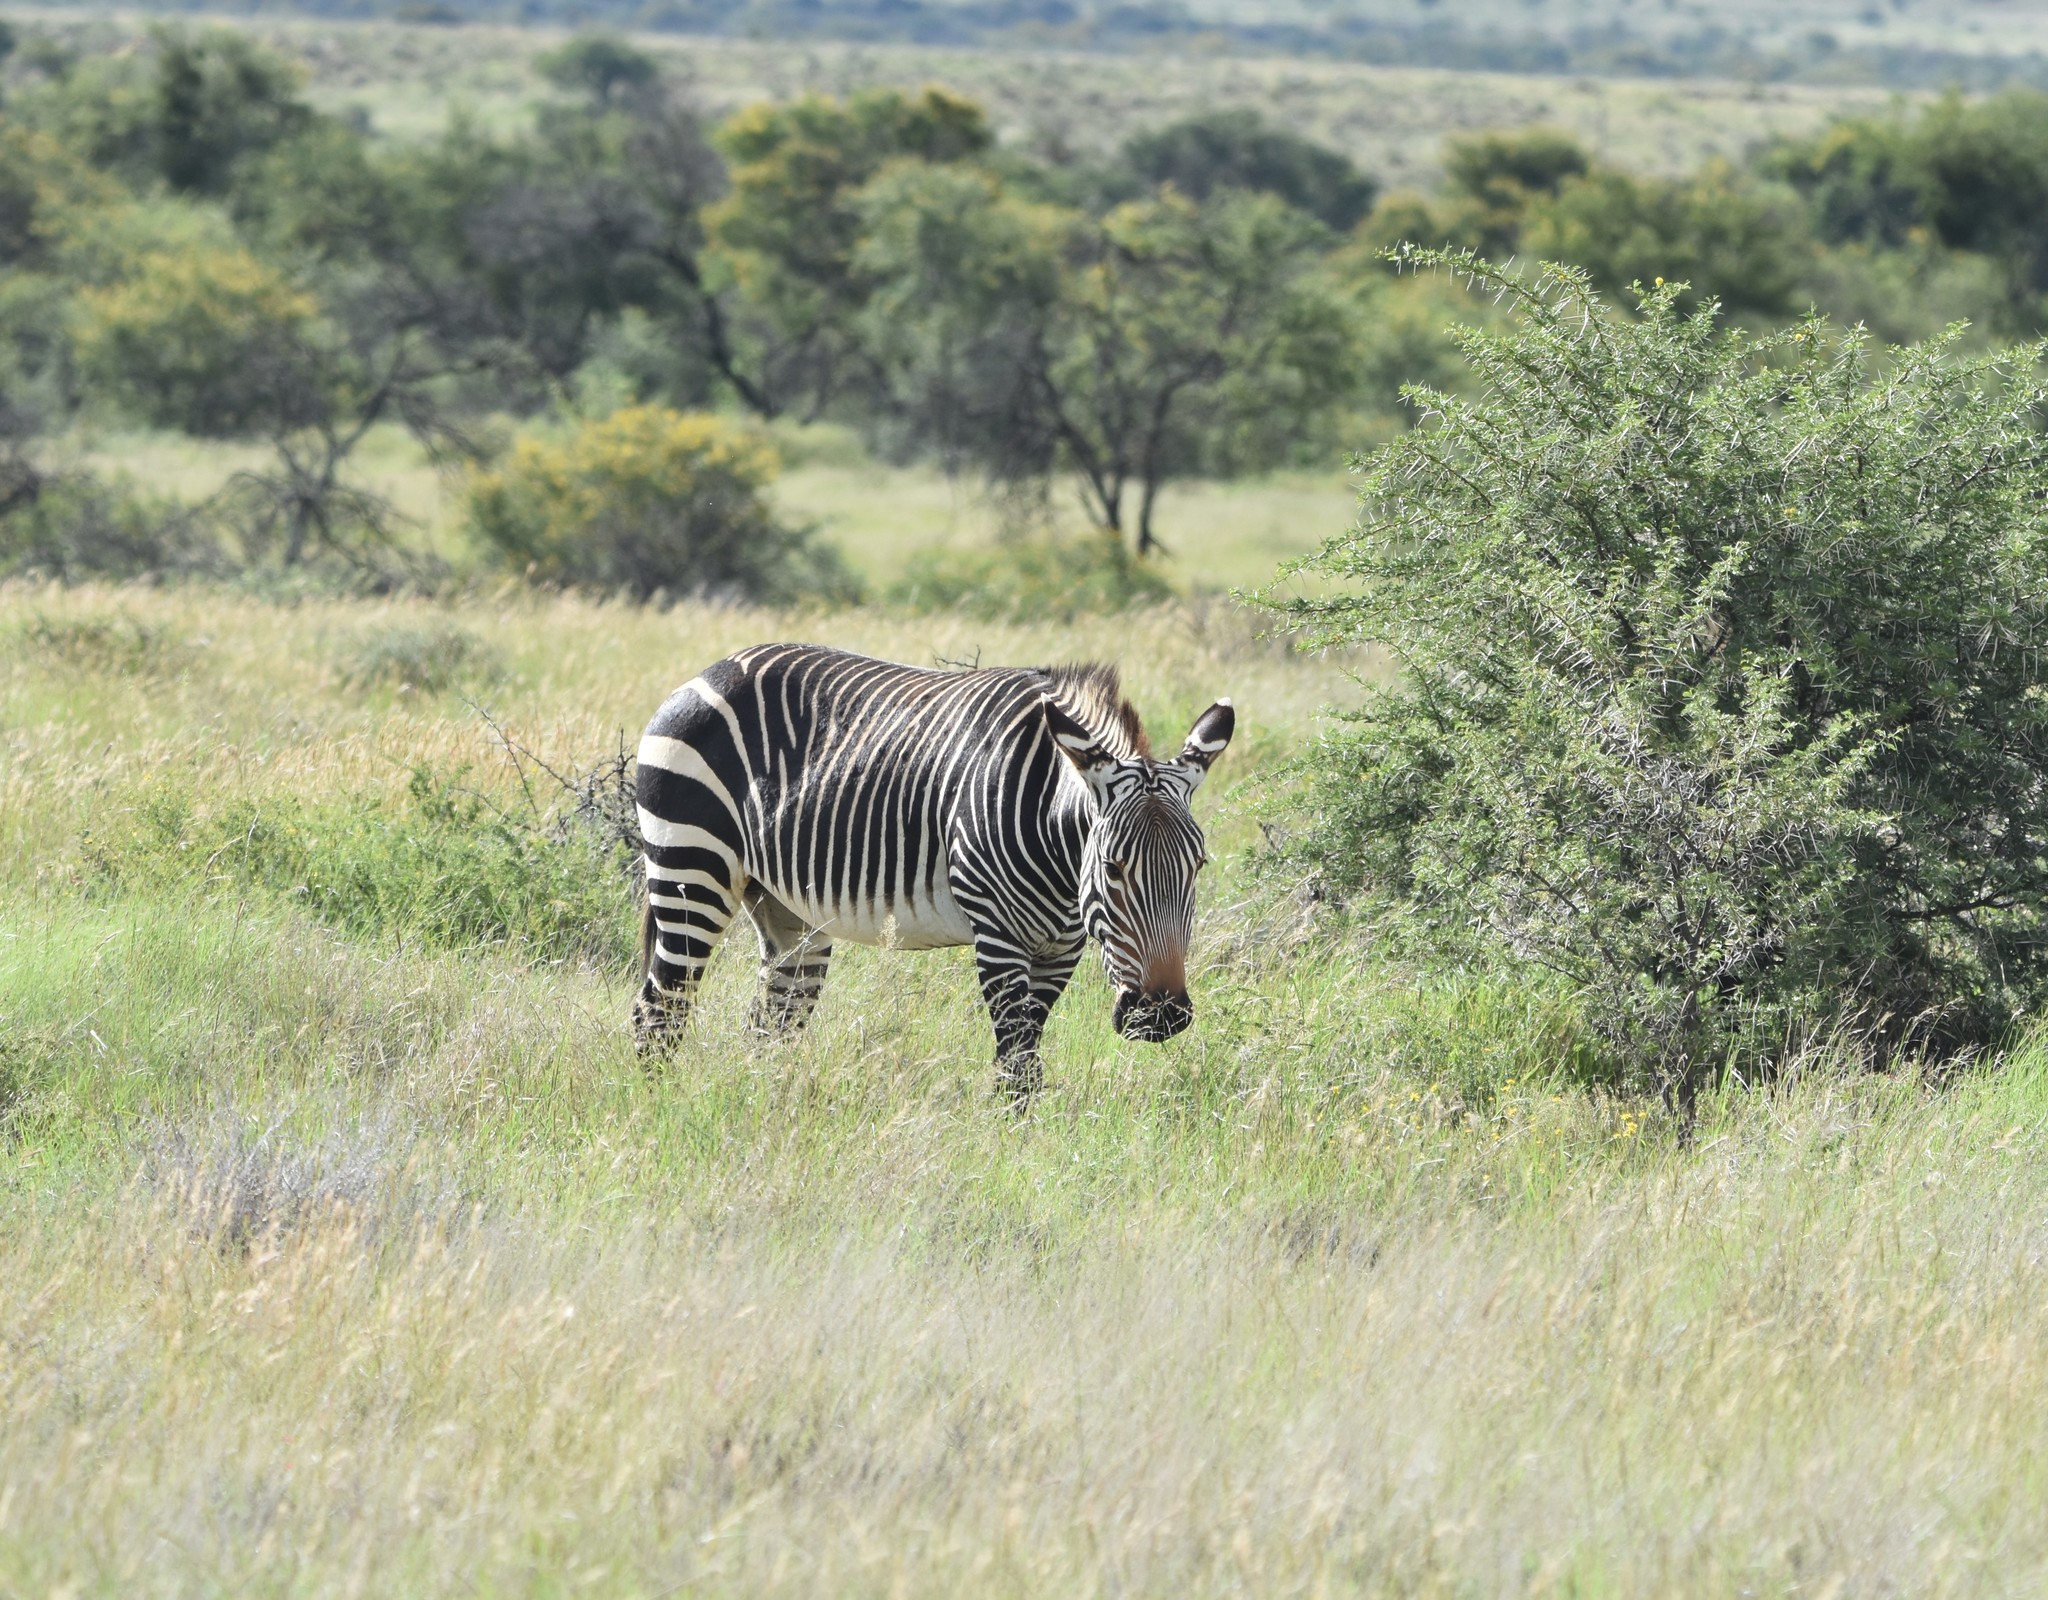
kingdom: Animalia
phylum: Chordata
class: Mammalia
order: Perissodactyla
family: Equidae
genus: Equus
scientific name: Equus zebra
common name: Mountain zebra
